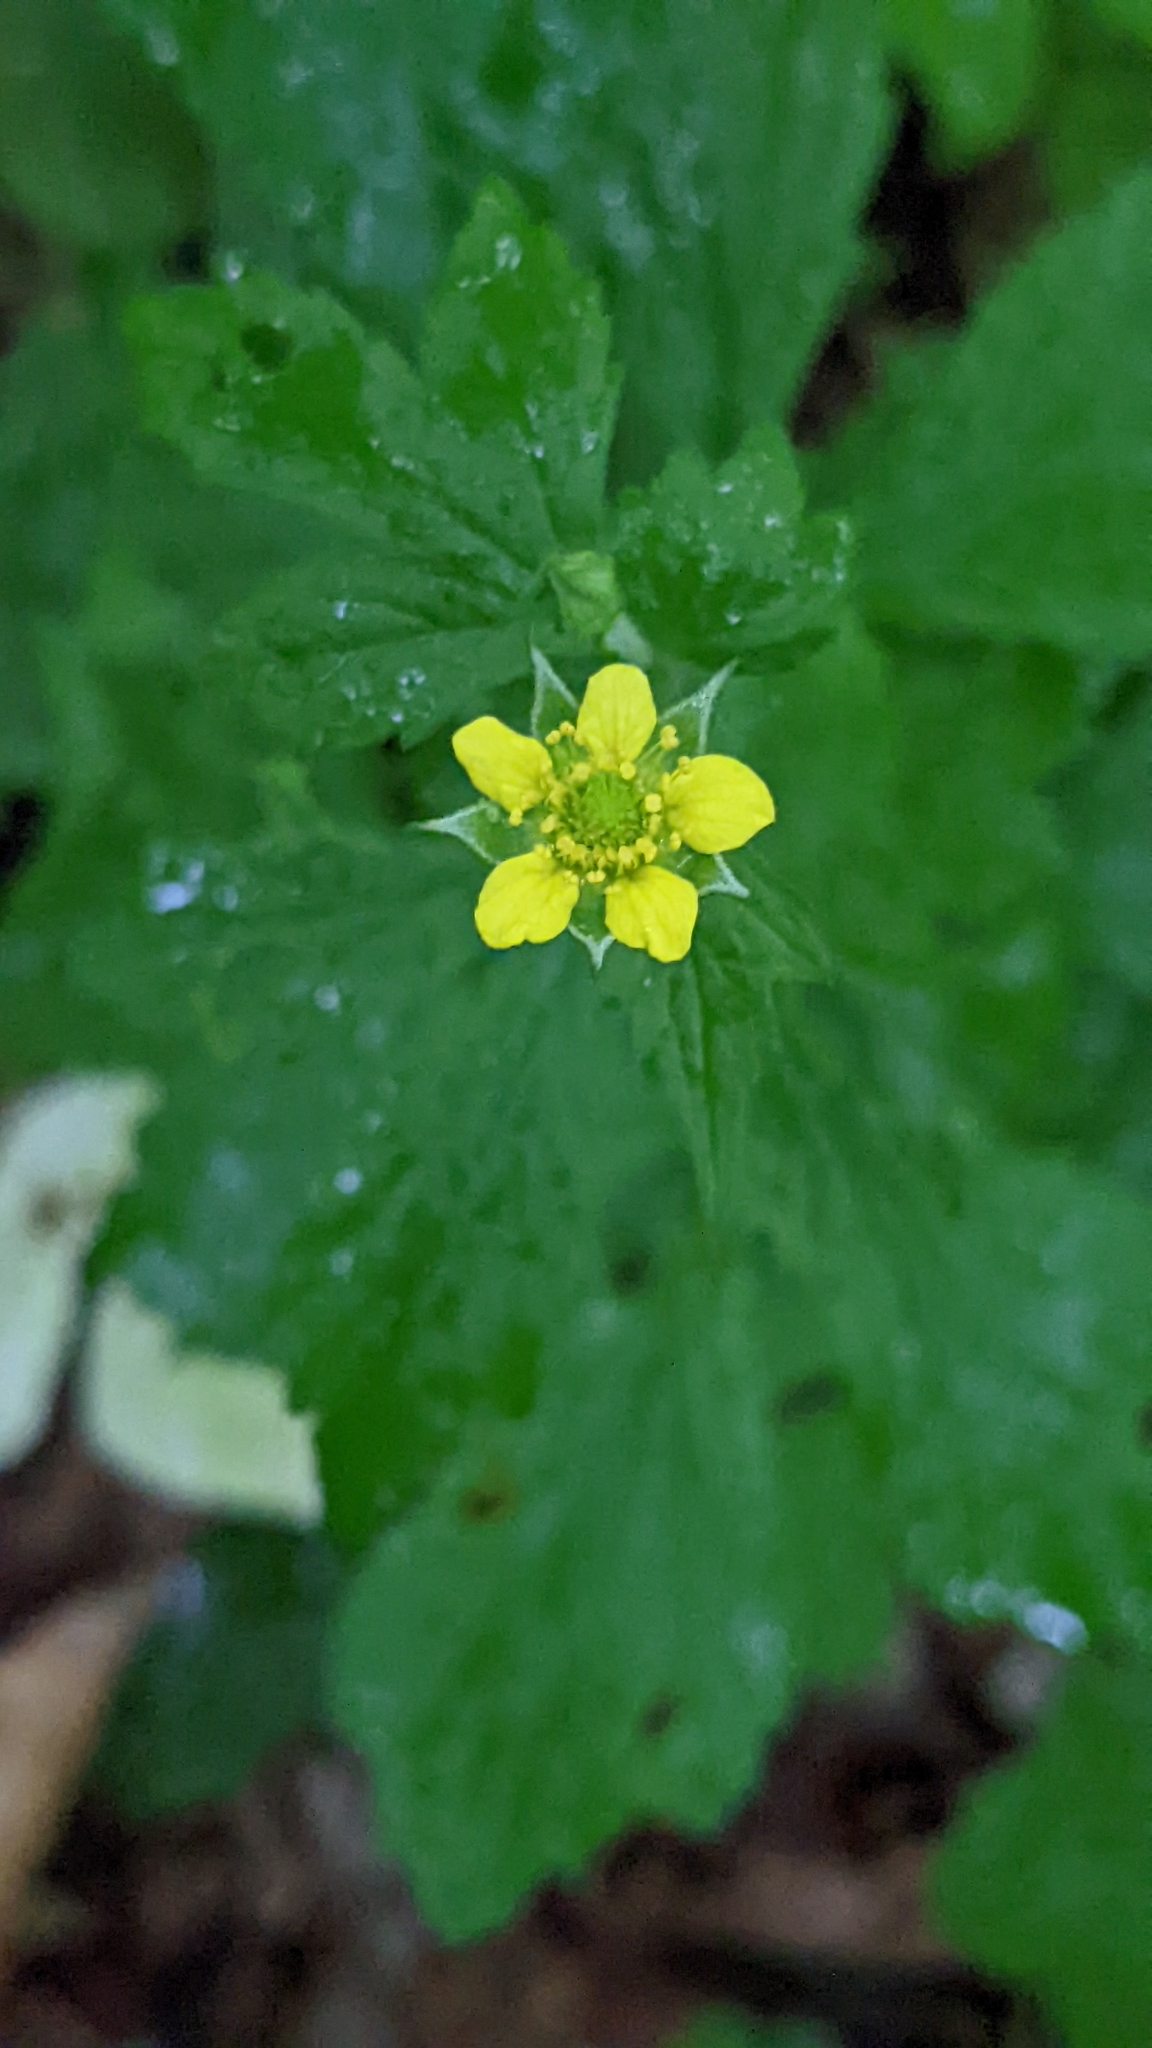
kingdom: Plantae
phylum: Tracheophyta
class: Magnoliopsida
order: Rosales
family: Rosaceae
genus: Geum
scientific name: Geum urbanum
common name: Wood avens
